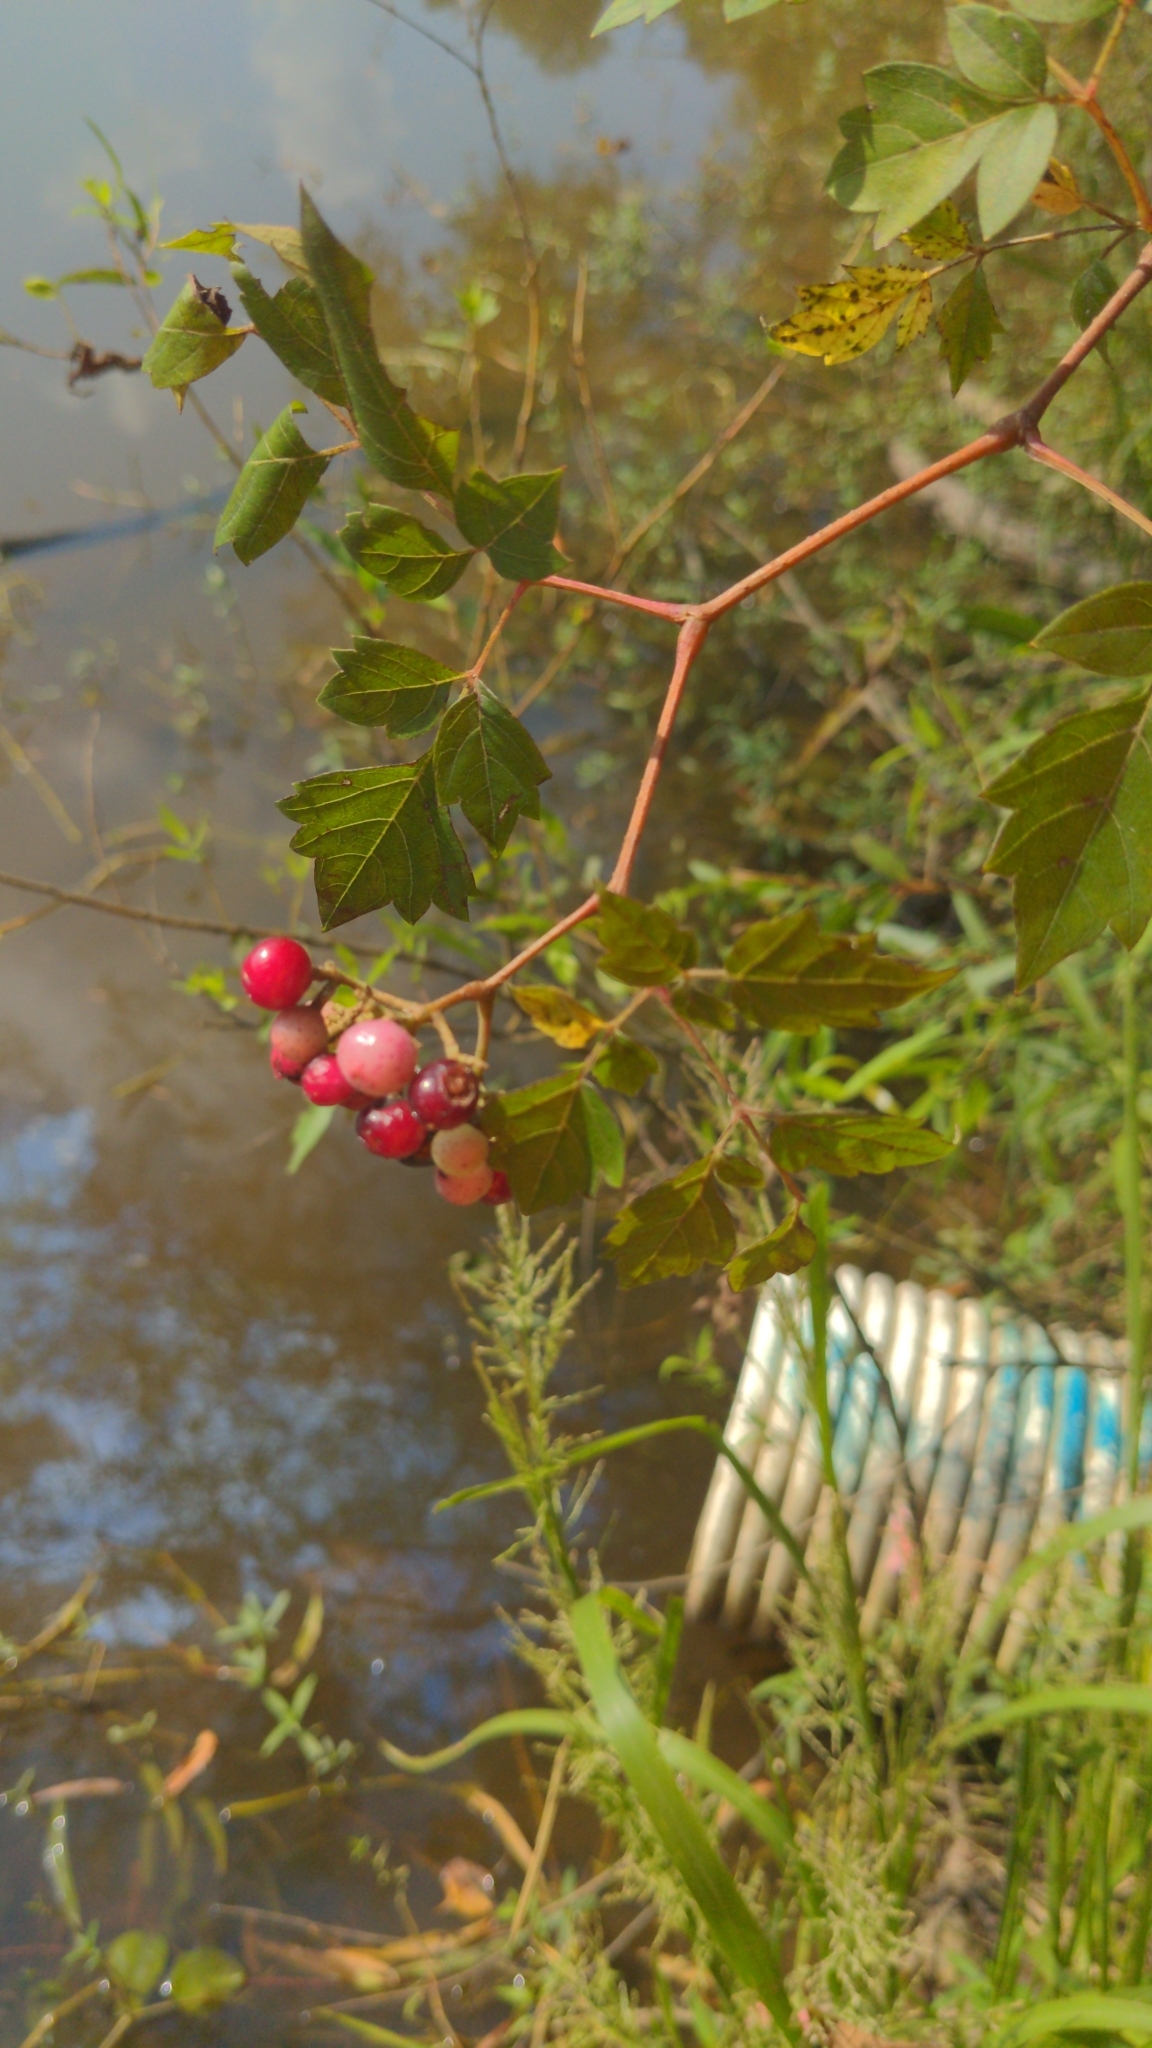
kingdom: Plantae
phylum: Tracheophyta
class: Magnoliopsida
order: Vitales
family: Vitaceae
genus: Nekemias
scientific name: Nekemias arborea
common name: Peppervine
